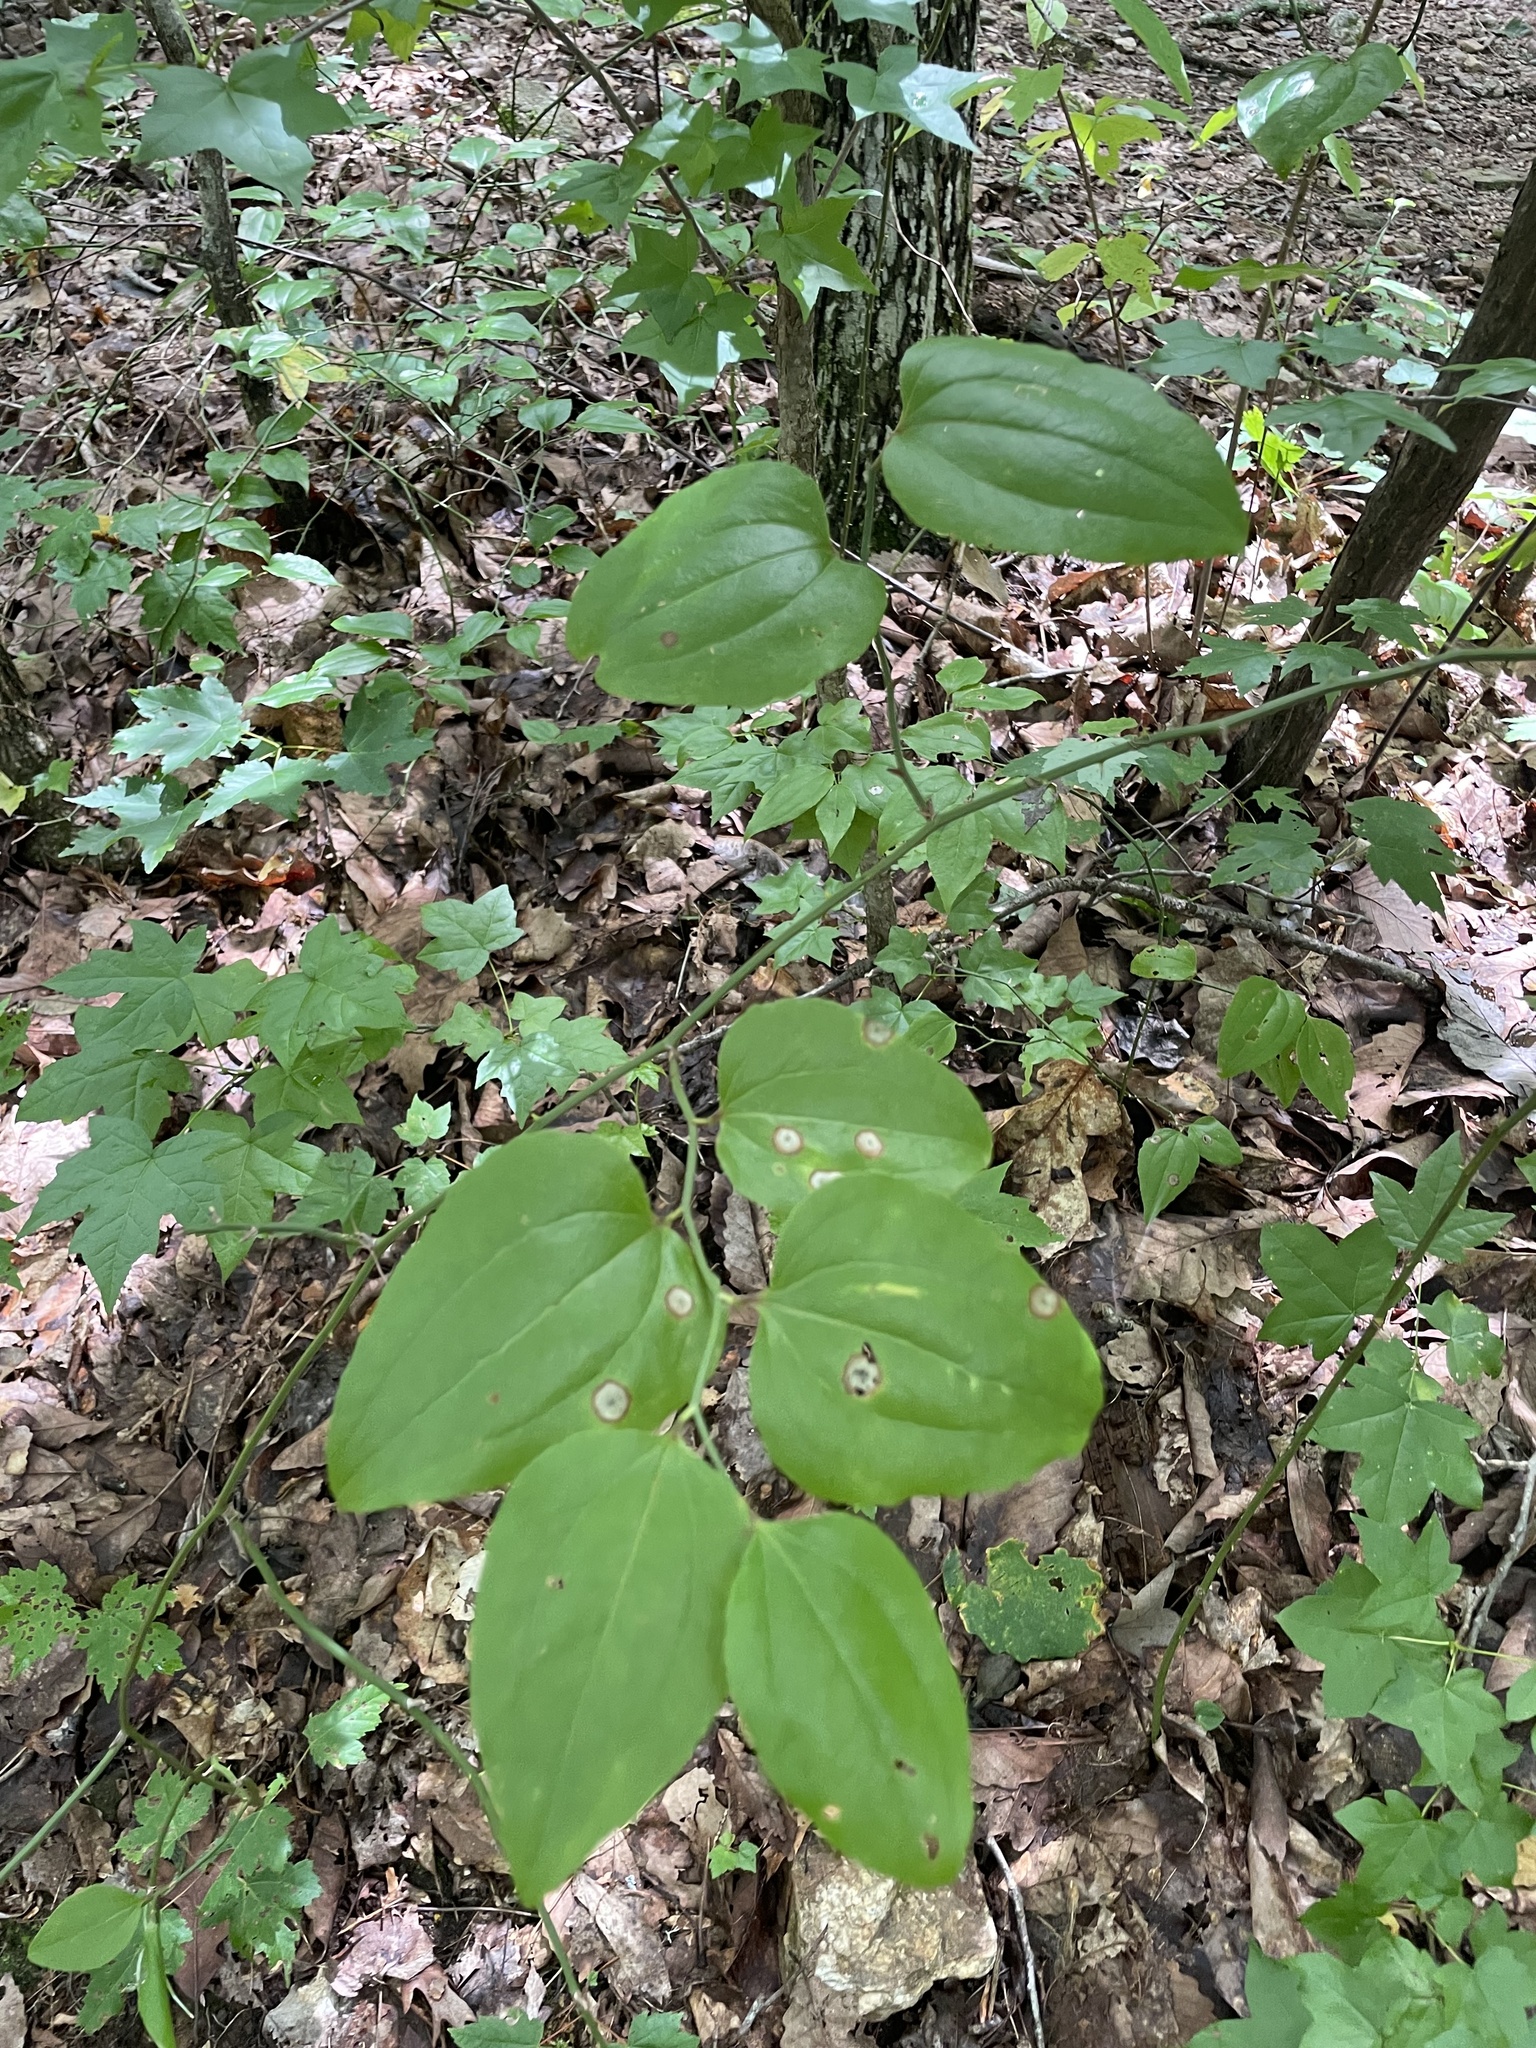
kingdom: Plantae
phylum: Tracheophyta
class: Liliopsida
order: Liliales
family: Smilacaceae
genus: Smilax
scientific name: Smilax rotundifolia
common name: Bullbriar
